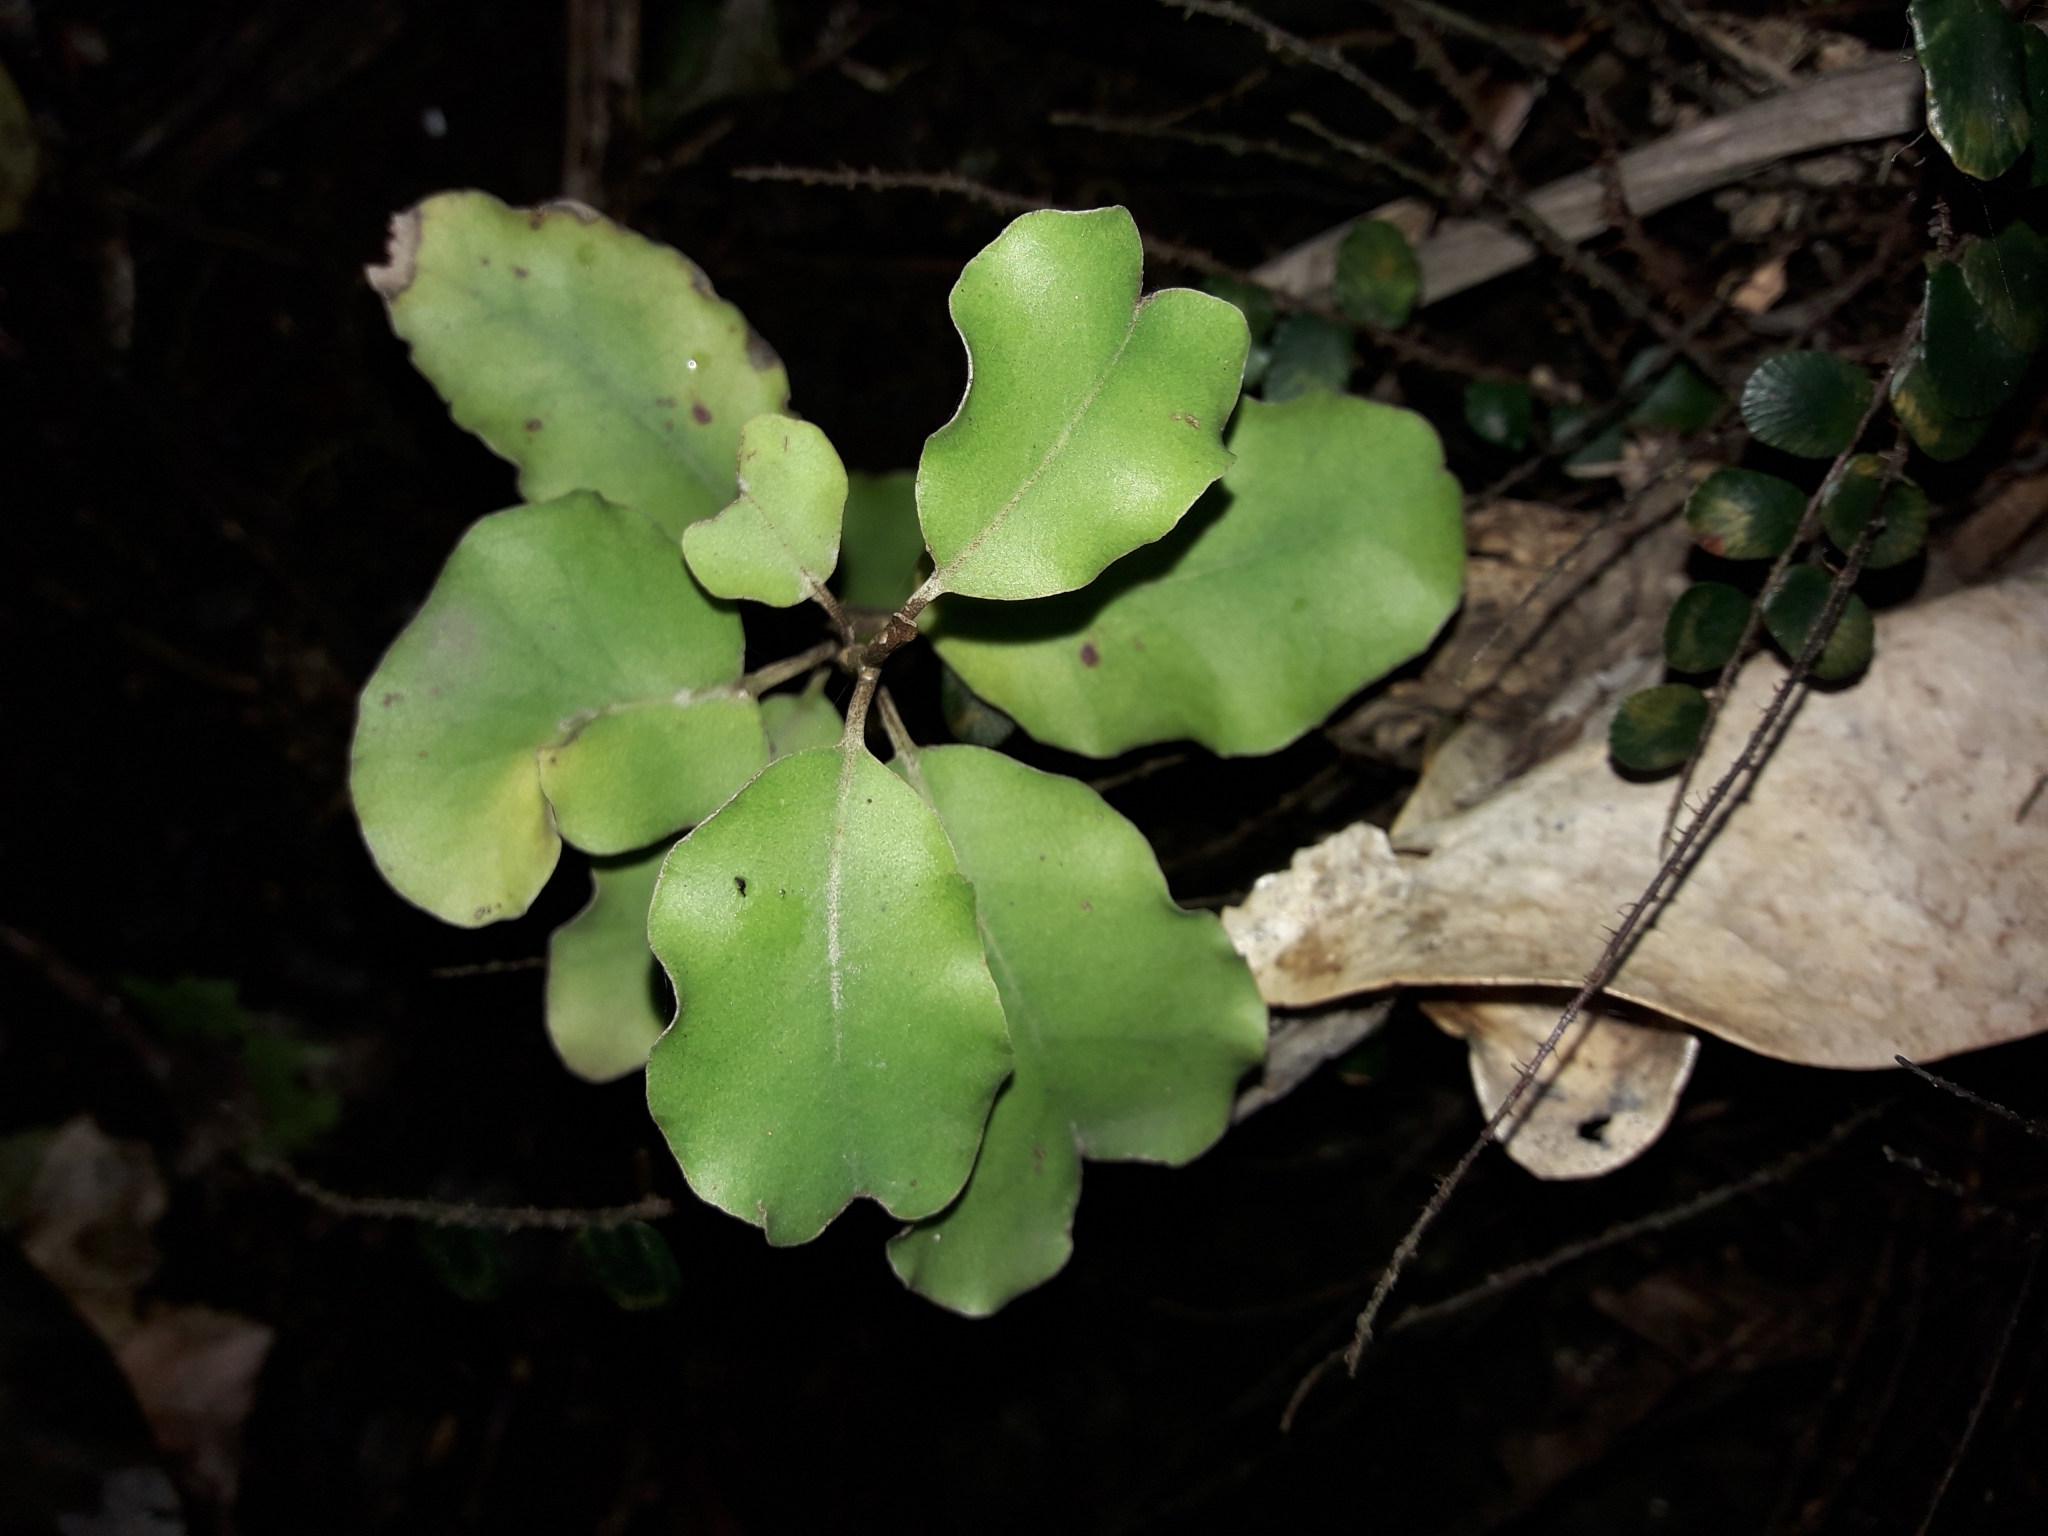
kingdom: Plantae
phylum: Tracheophyta
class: Magnoliopsida
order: Asterales
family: Asteraceae
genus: Olearia
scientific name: Olearia paniculata
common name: Akiraho
